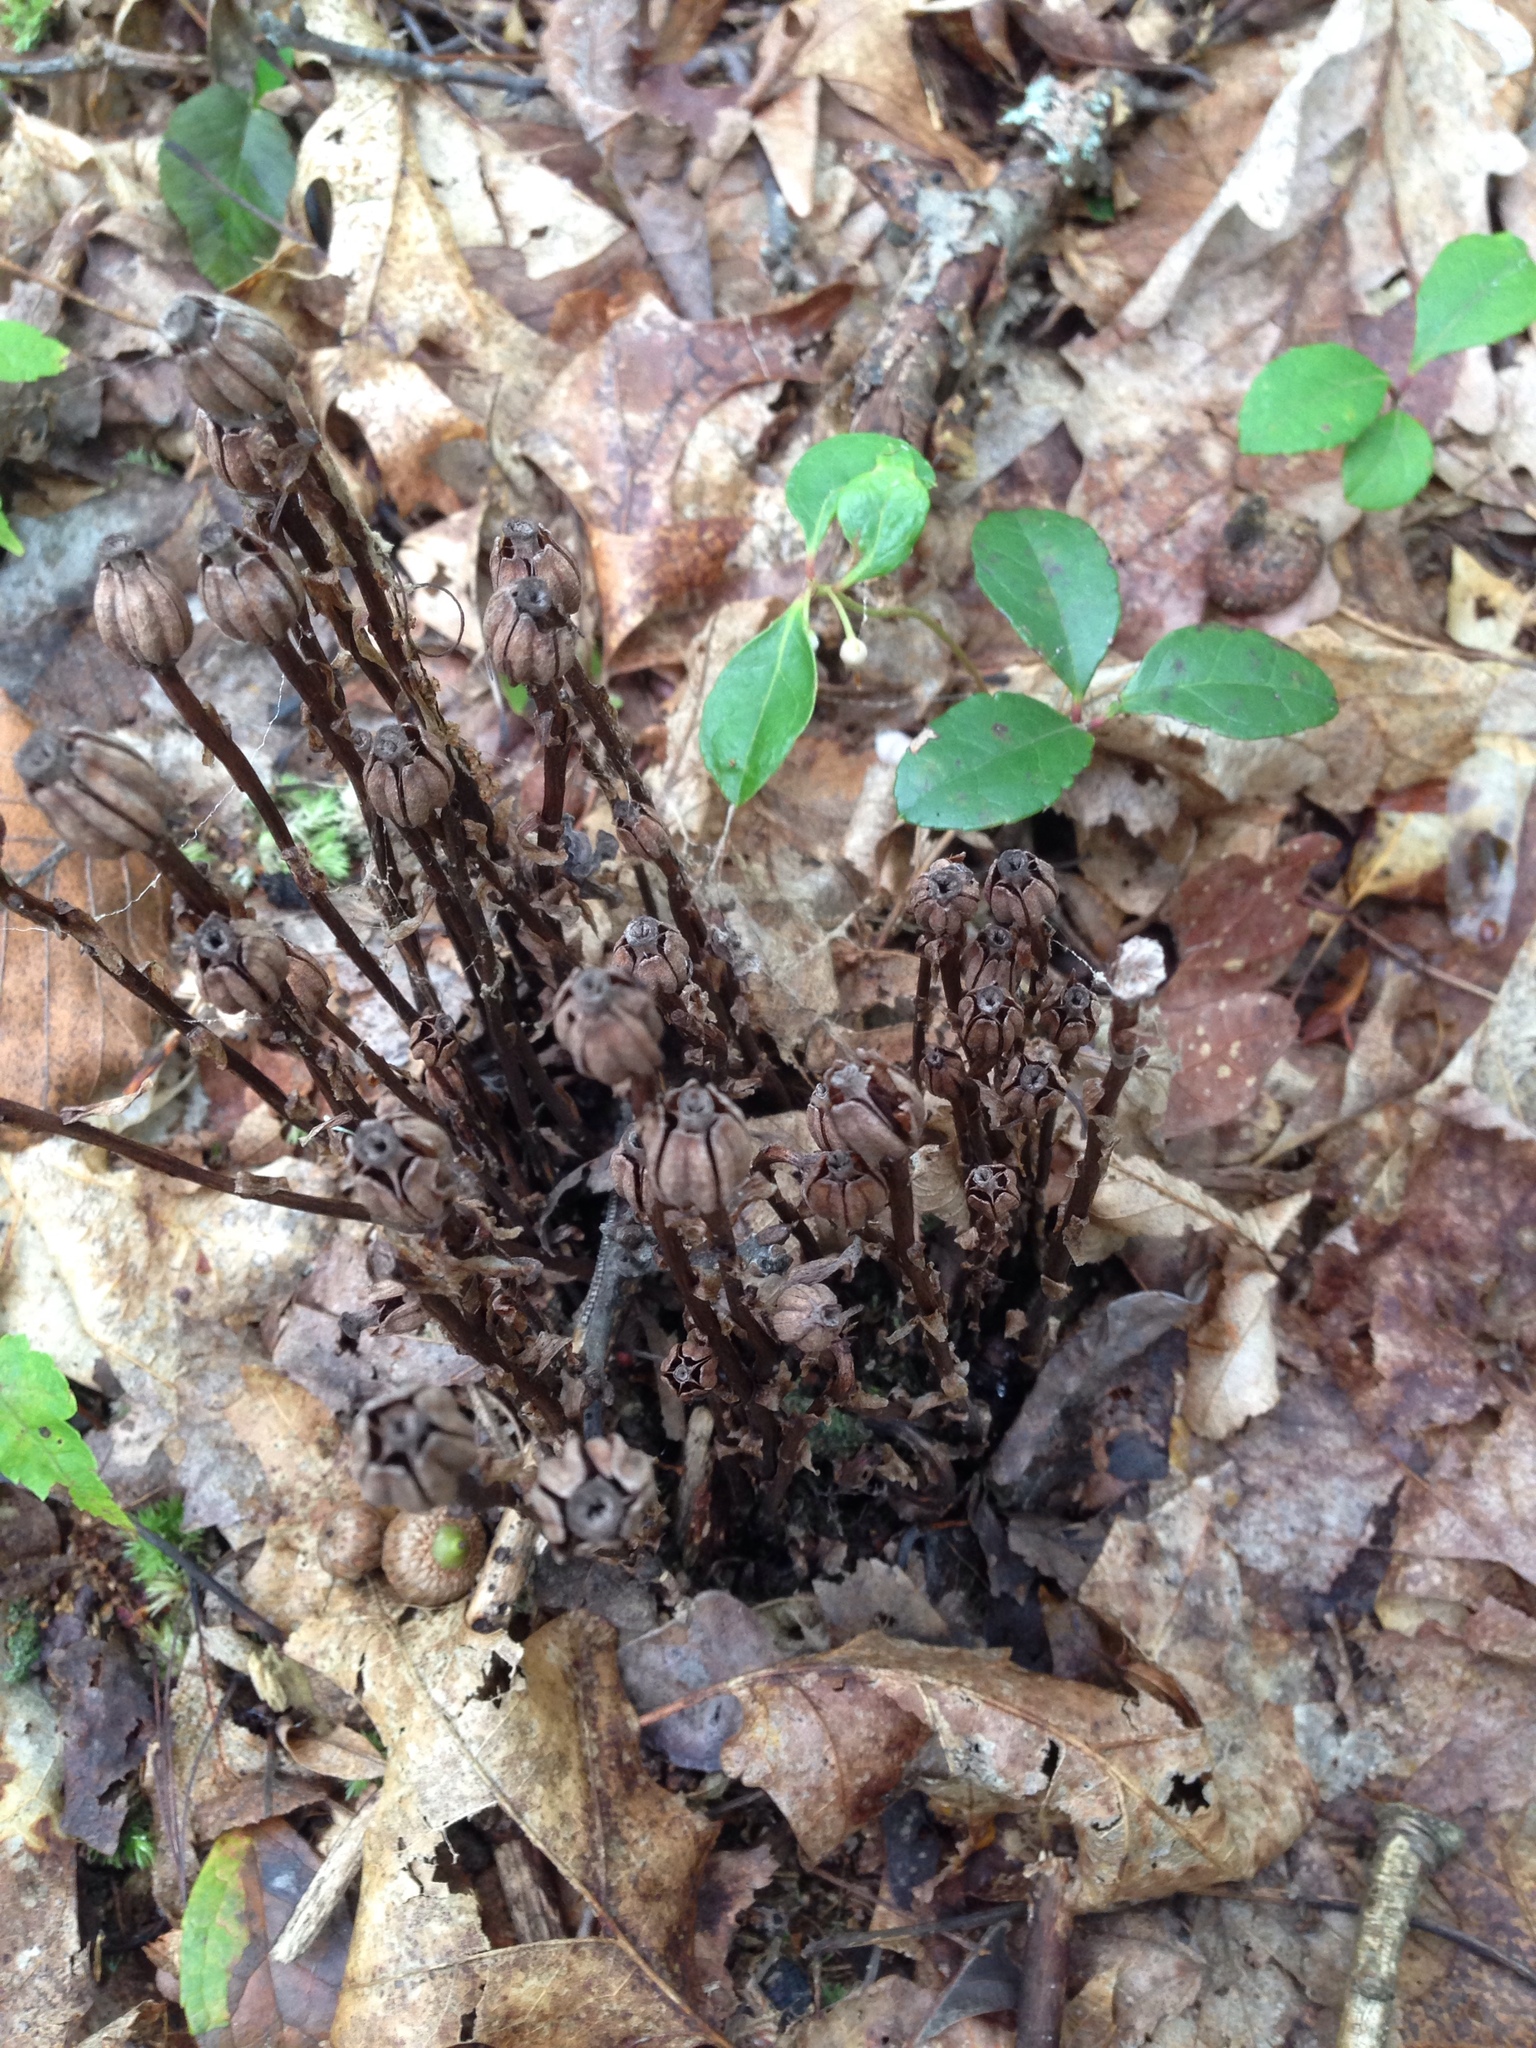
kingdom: Plantae
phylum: Tracheophyta
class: Magnoliopsida
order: Ericales
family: Ericaceae
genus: Monotropa
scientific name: Monotropa uniflora
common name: Convulsion root
